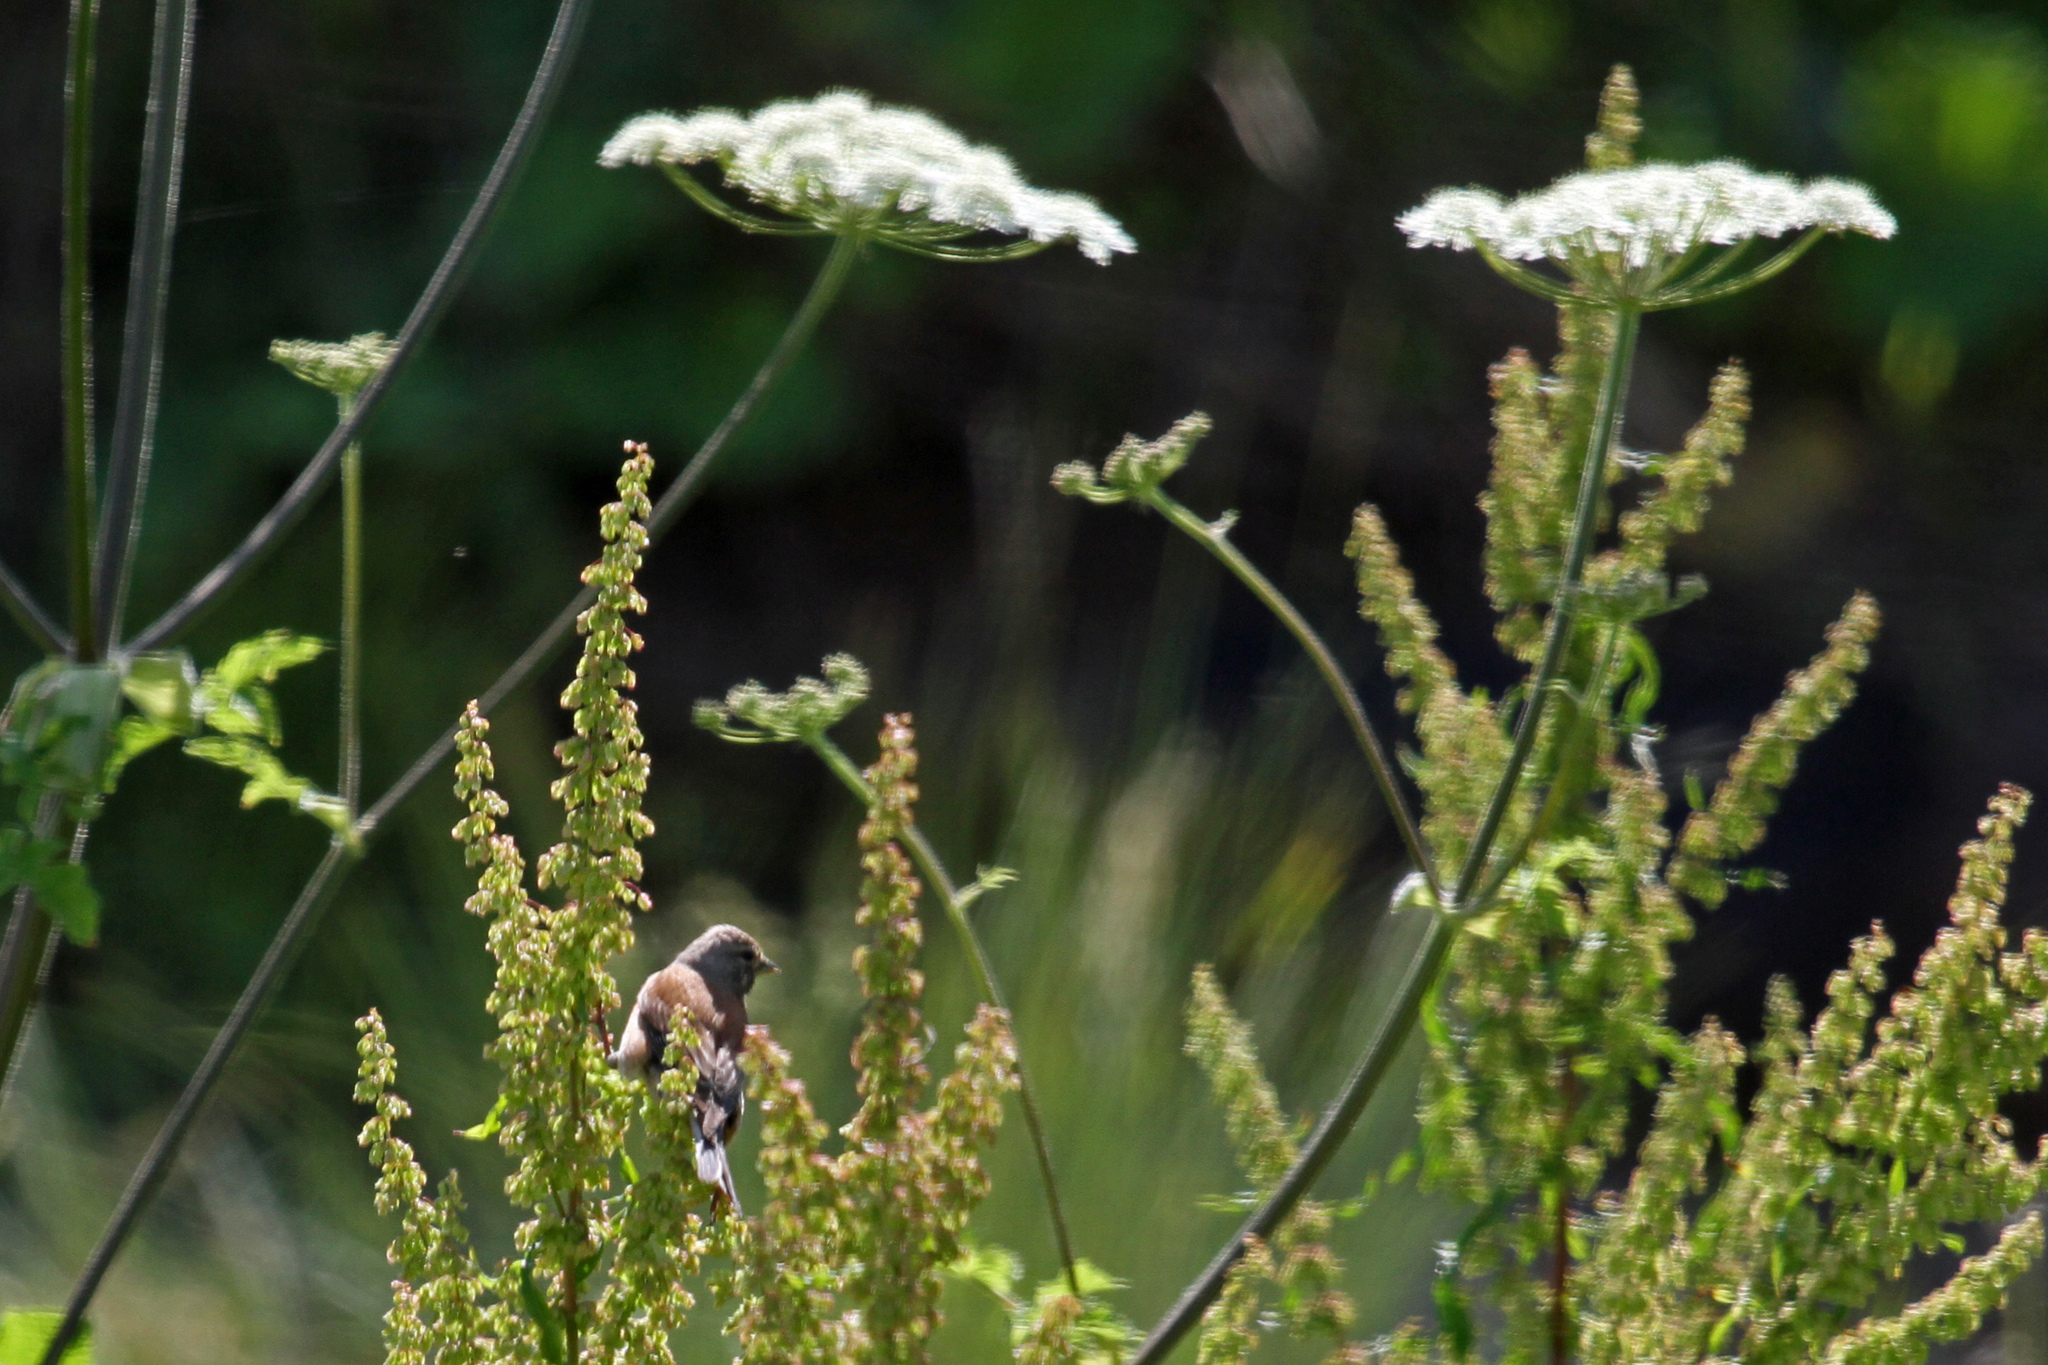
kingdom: Animalia
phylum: Chordata
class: Aves
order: Passeriformes
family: Fringillidae
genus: Linaria
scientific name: Linaria cannabina
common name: Common linnet
